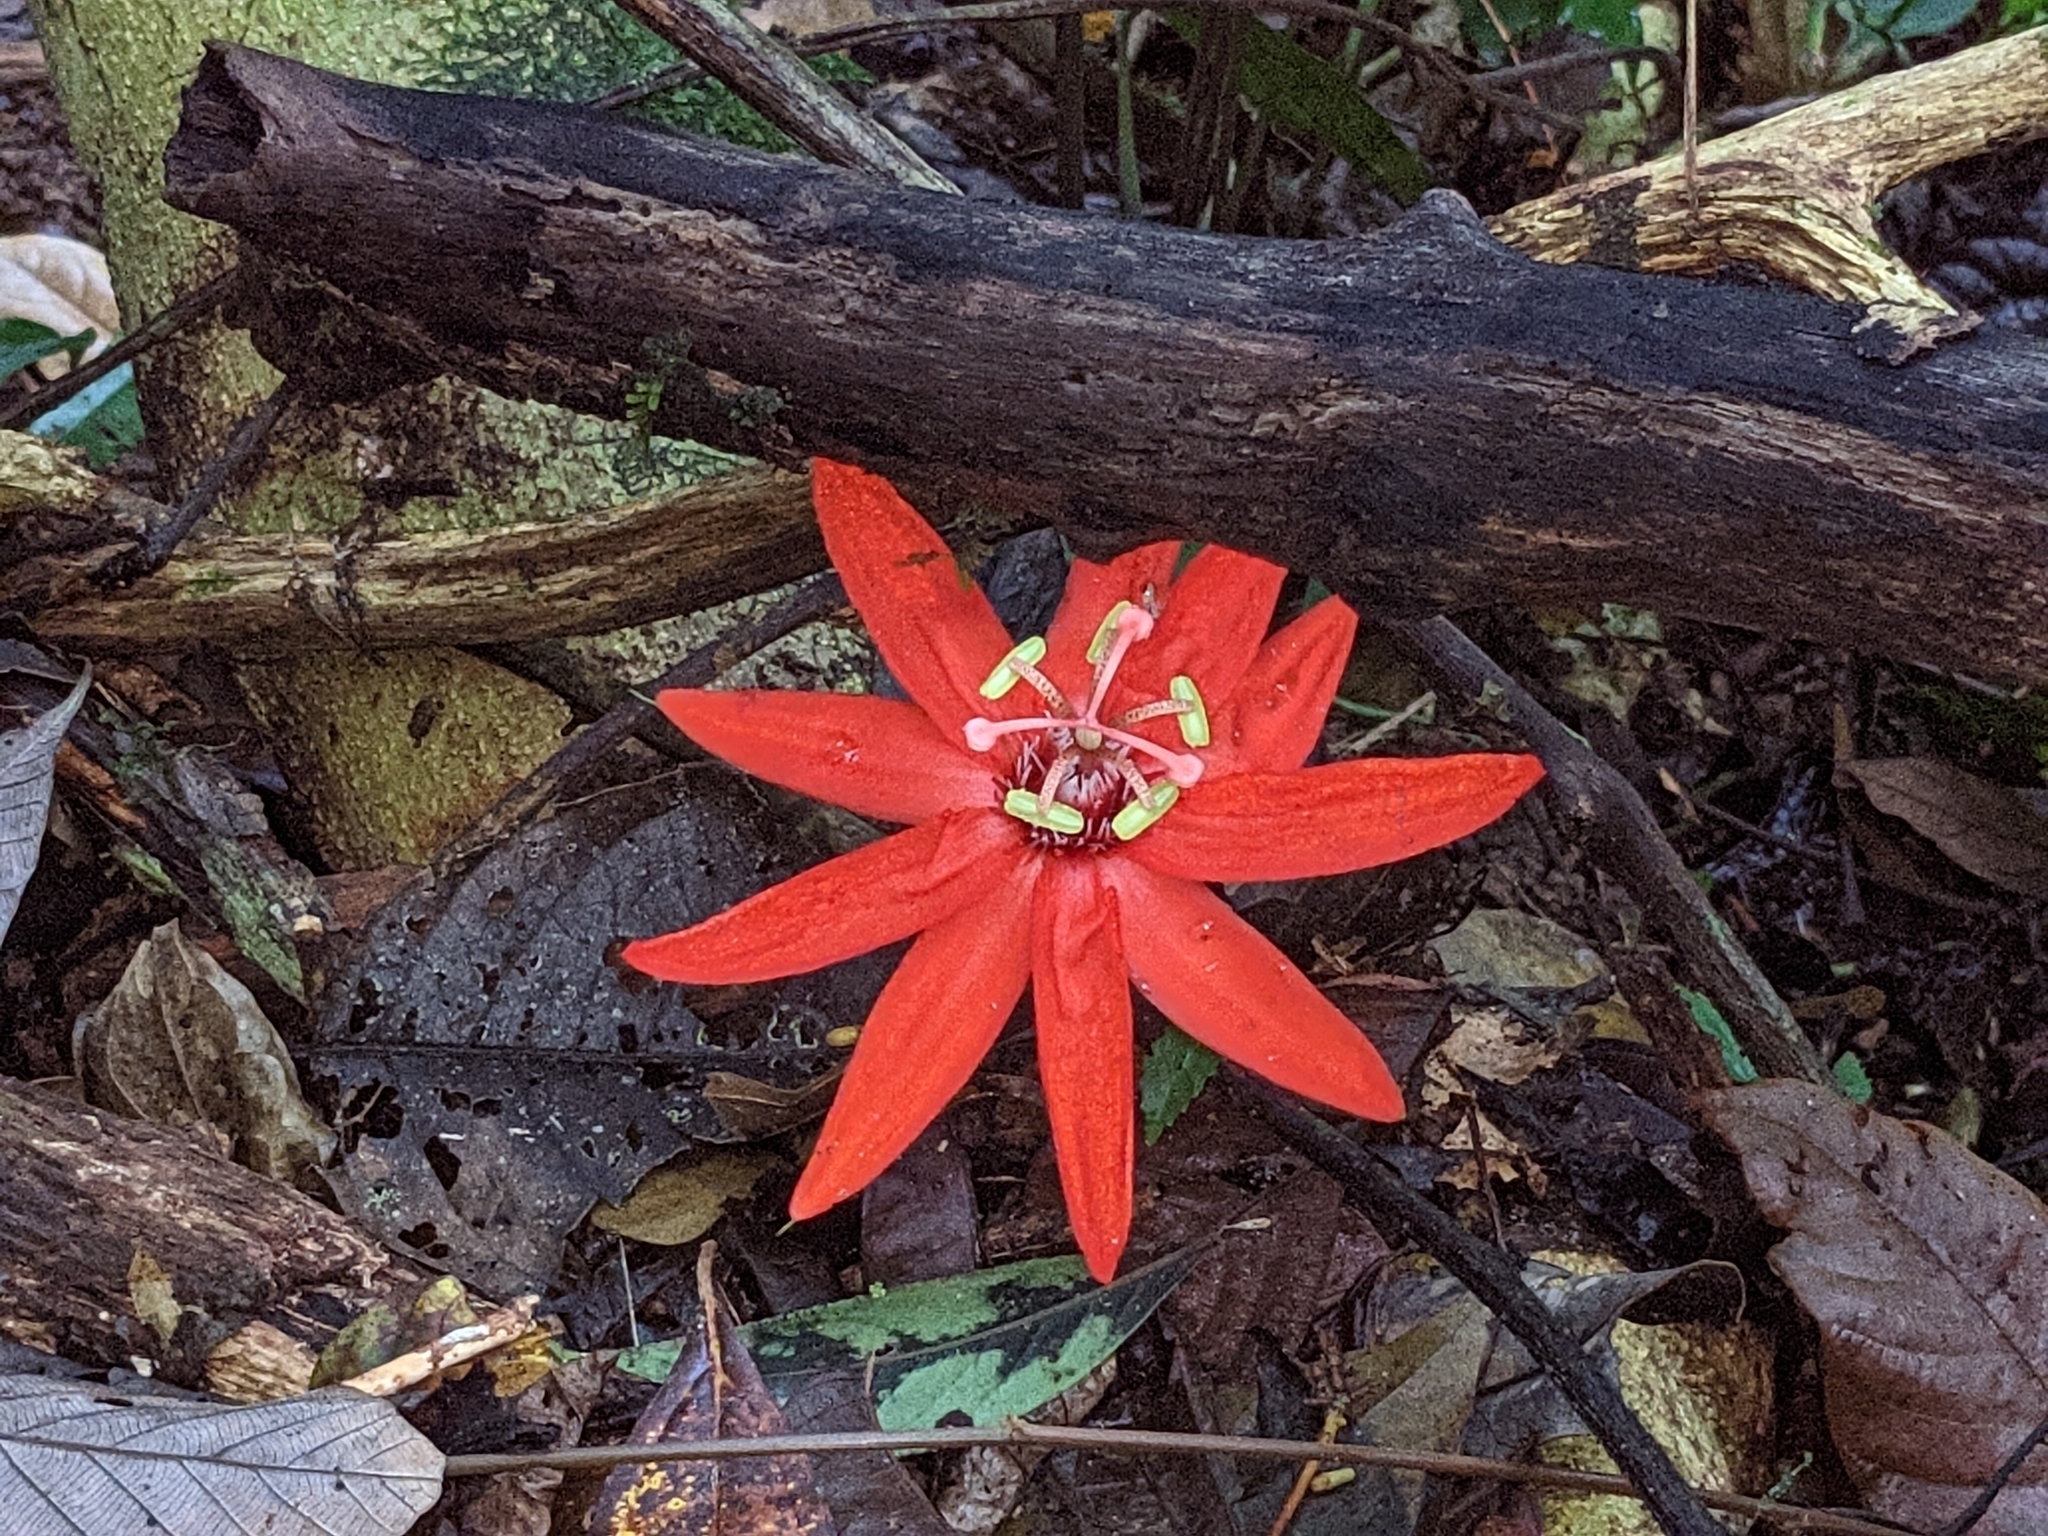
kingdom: Plantae
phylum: Tracheophyta
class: Magnoliopsida
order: Malpighiales
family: Passifloraceae
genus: Passiflora
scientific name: Passiflora vitifolia
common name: Perfumed passionflower
